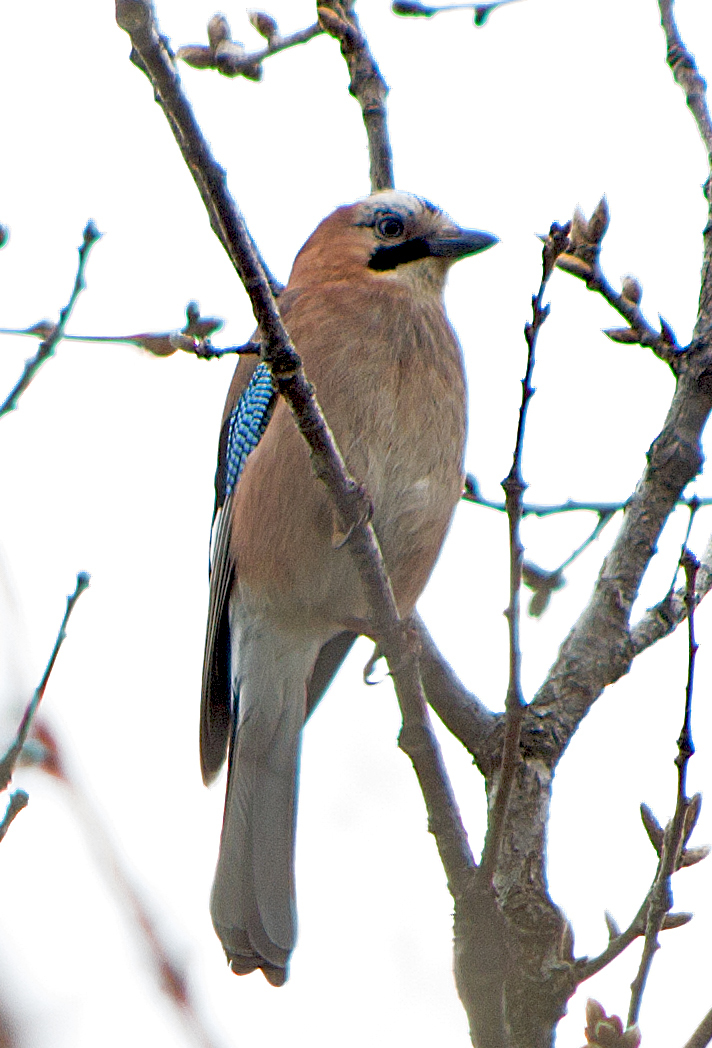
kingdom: Animalia
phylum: Chordata
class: Aves
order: Passeriformes
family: Corvidae
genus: Garrulus
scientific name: Garrulus glandarius
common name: Eurasian jay
